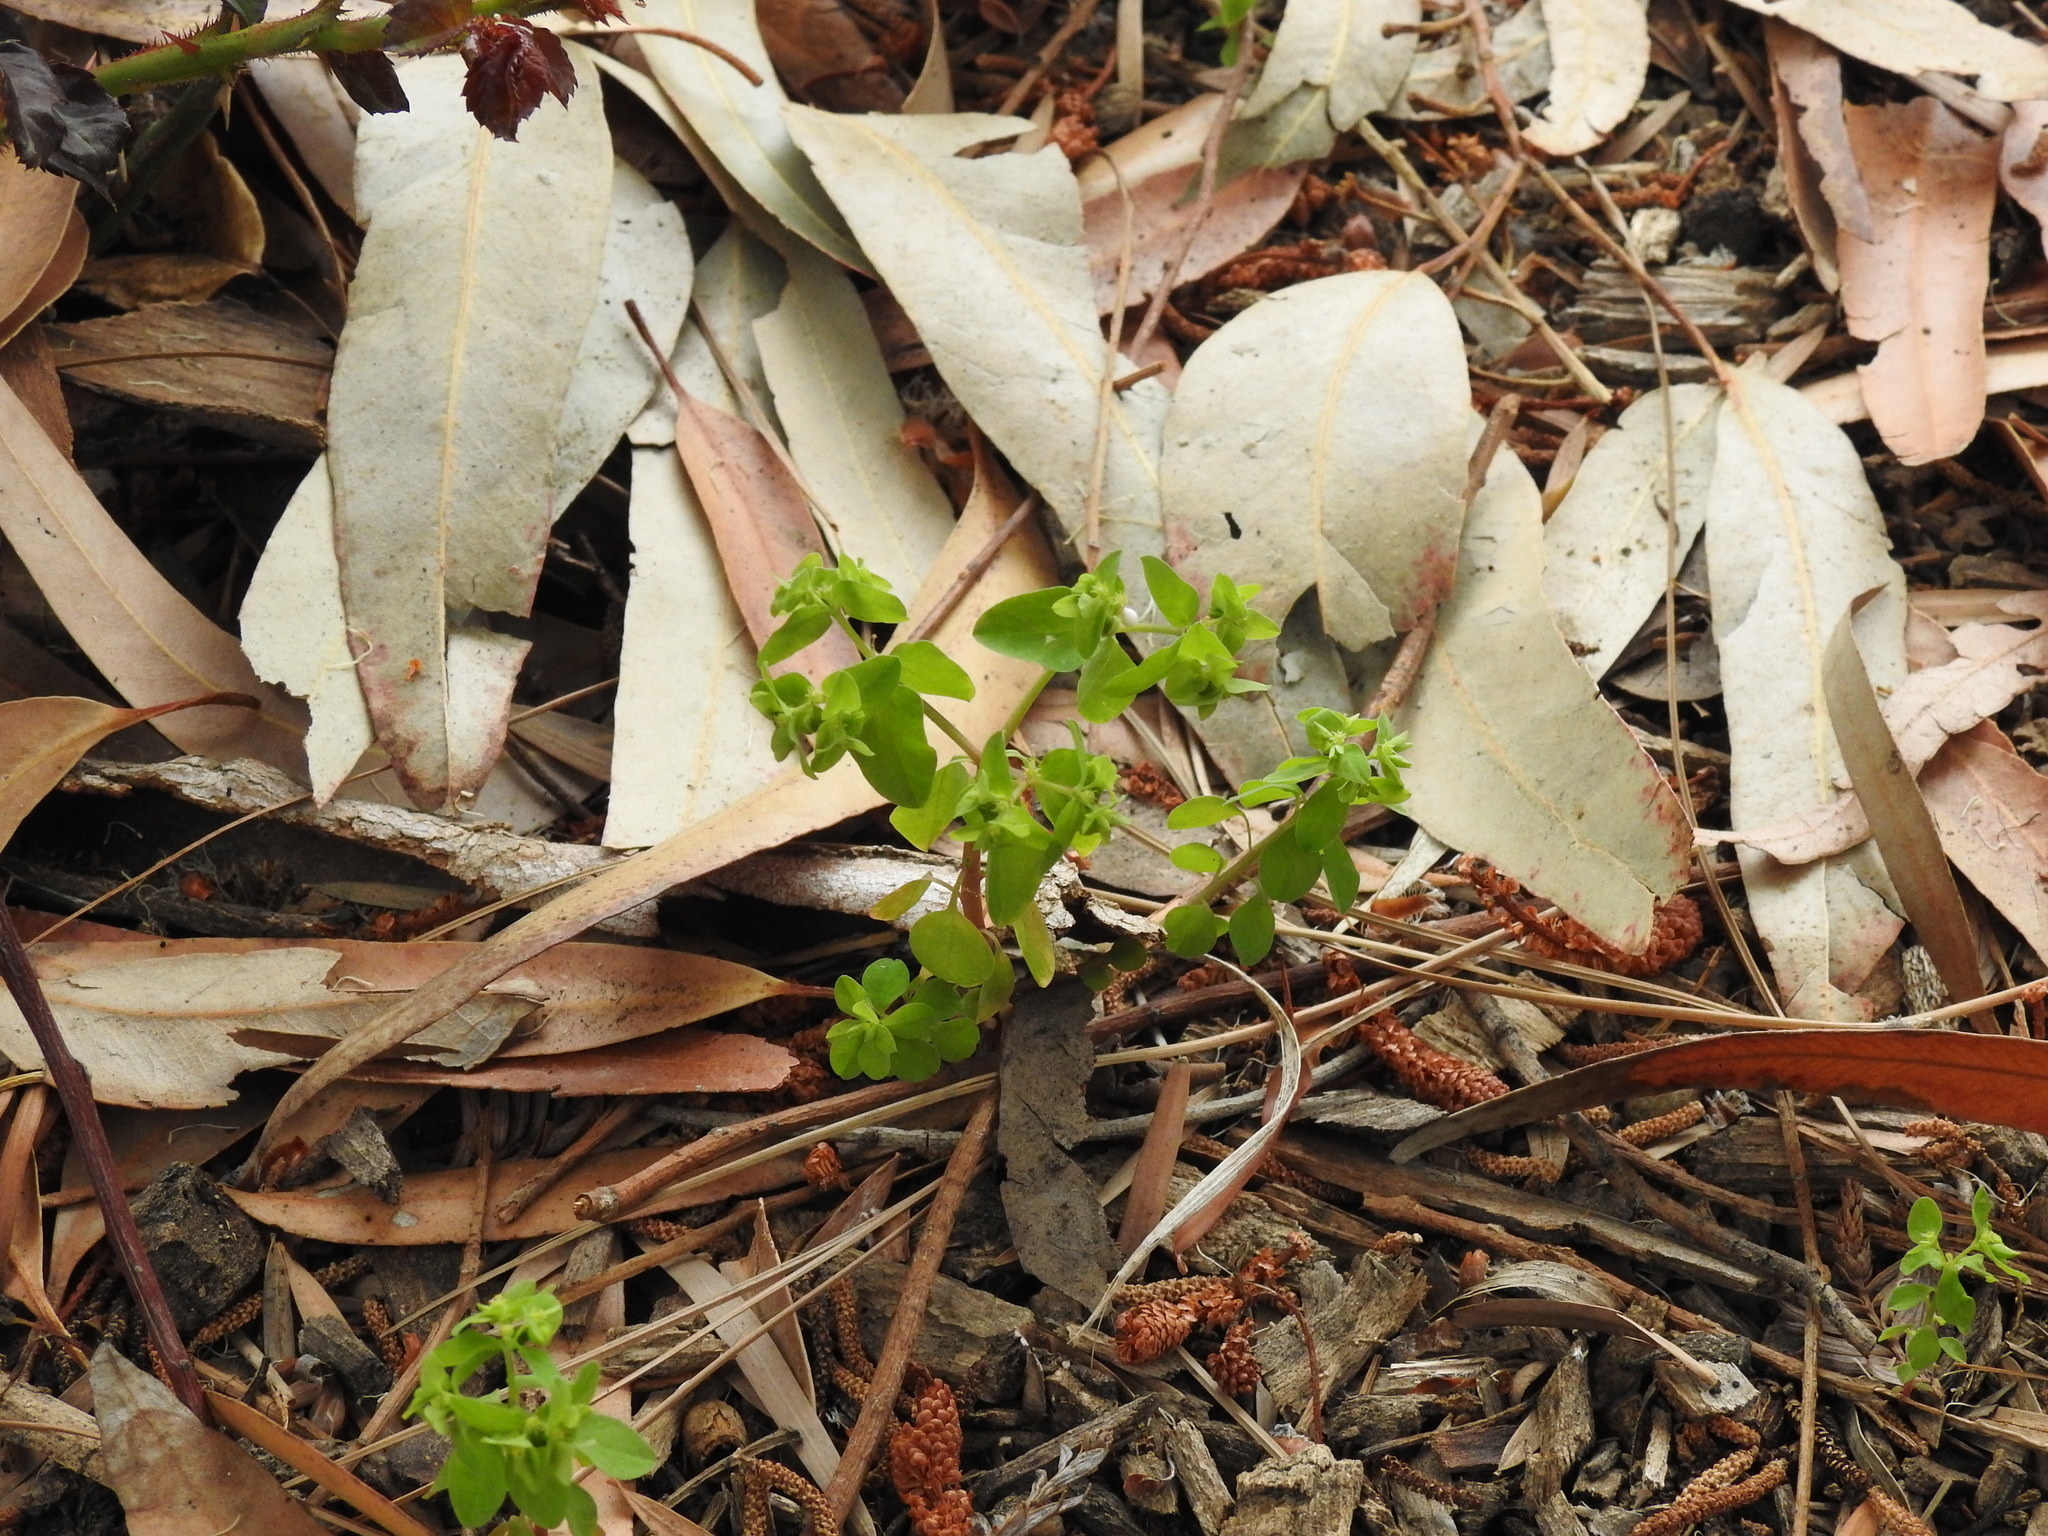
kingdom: Plantae
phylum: Tracheophyta
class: Magnoliopsida
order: Malpighiales
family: Euphorbiaceae
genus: Euphorbia
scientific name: Euphorbia peplus
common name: Petty spurge
